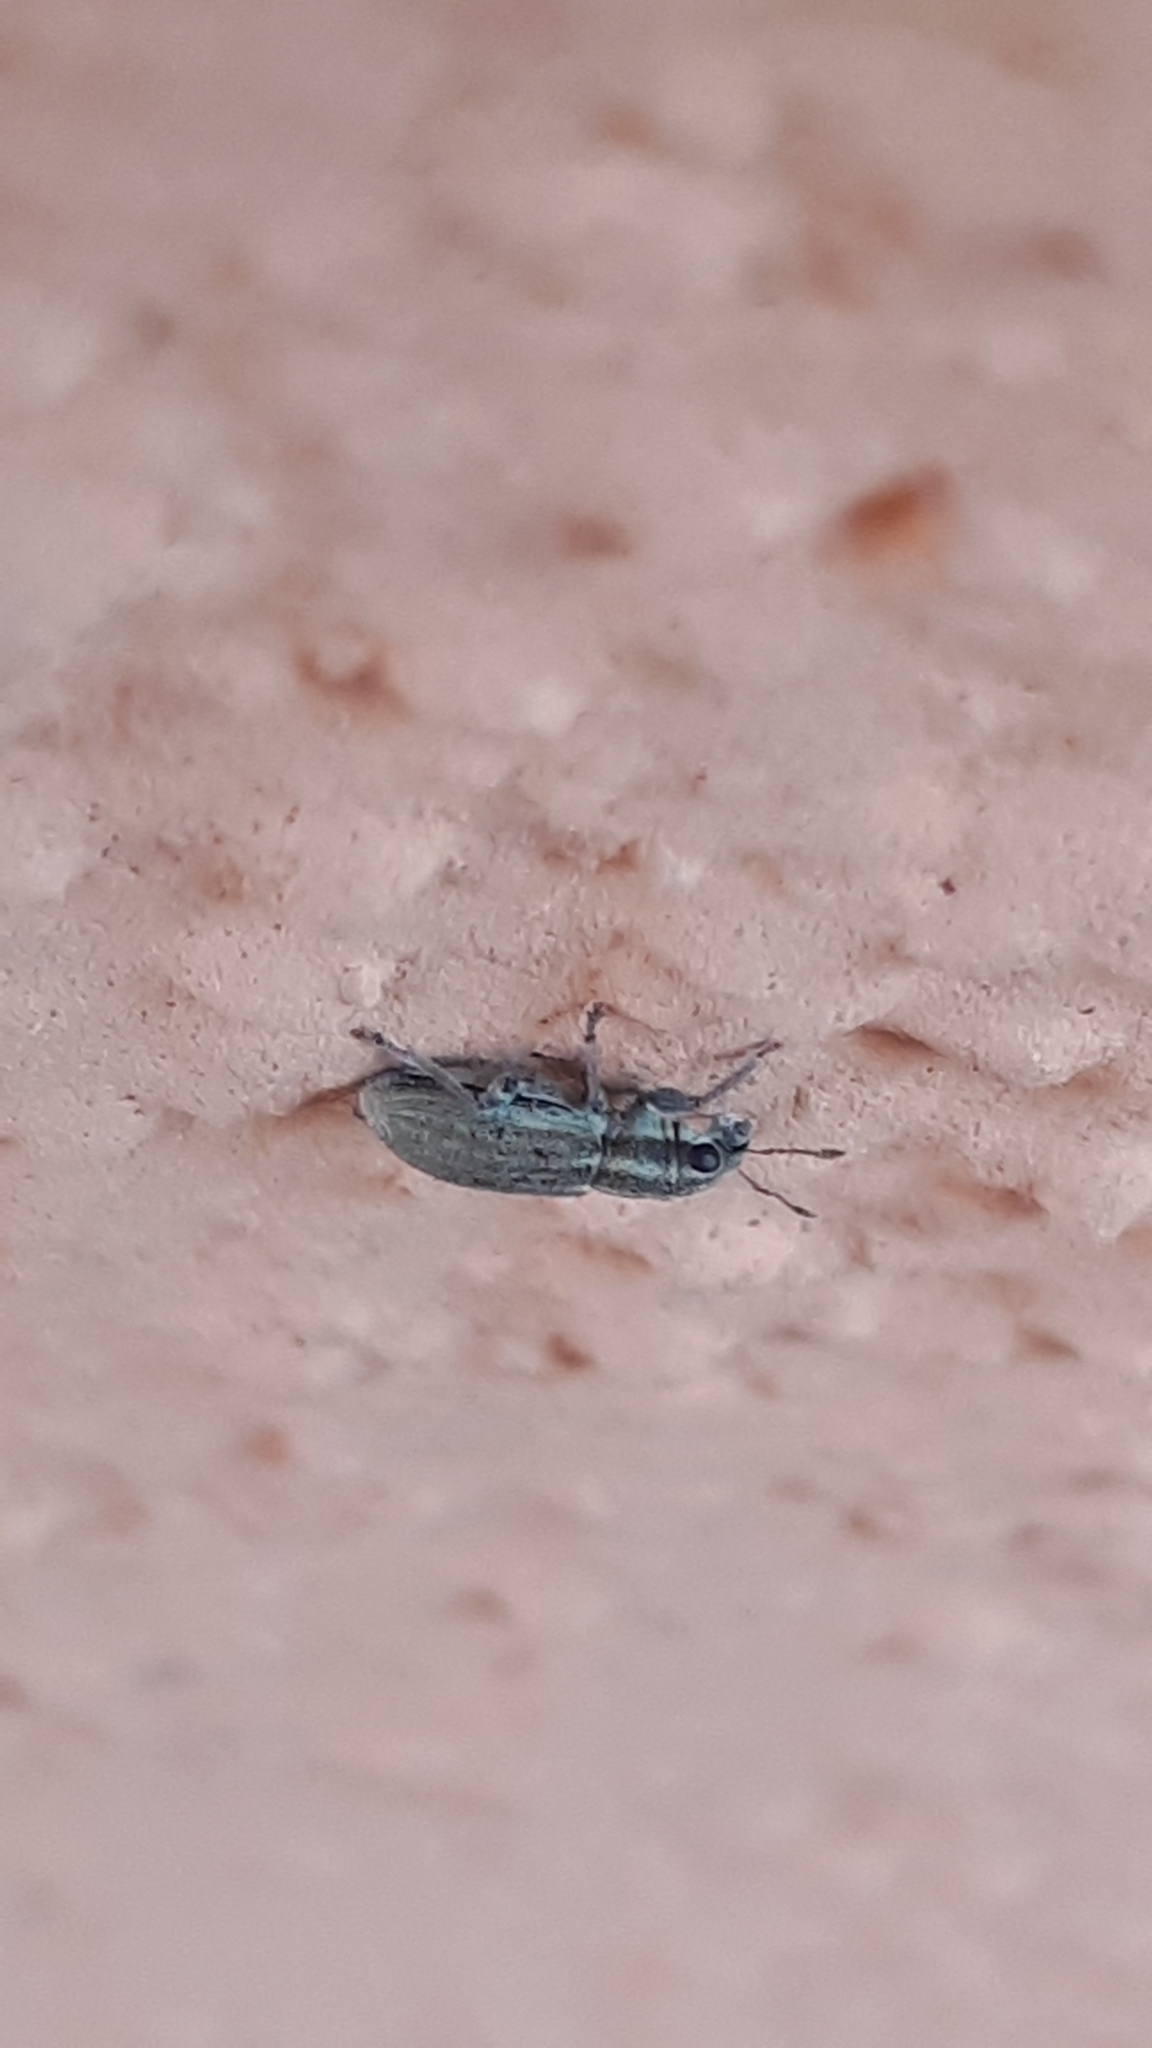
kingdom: Animalia
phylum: Arthropoda
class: Insecta
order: Coleoptera
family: Curculionidae
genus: Sitona
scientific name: Sitona lineatus
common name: Weevil
